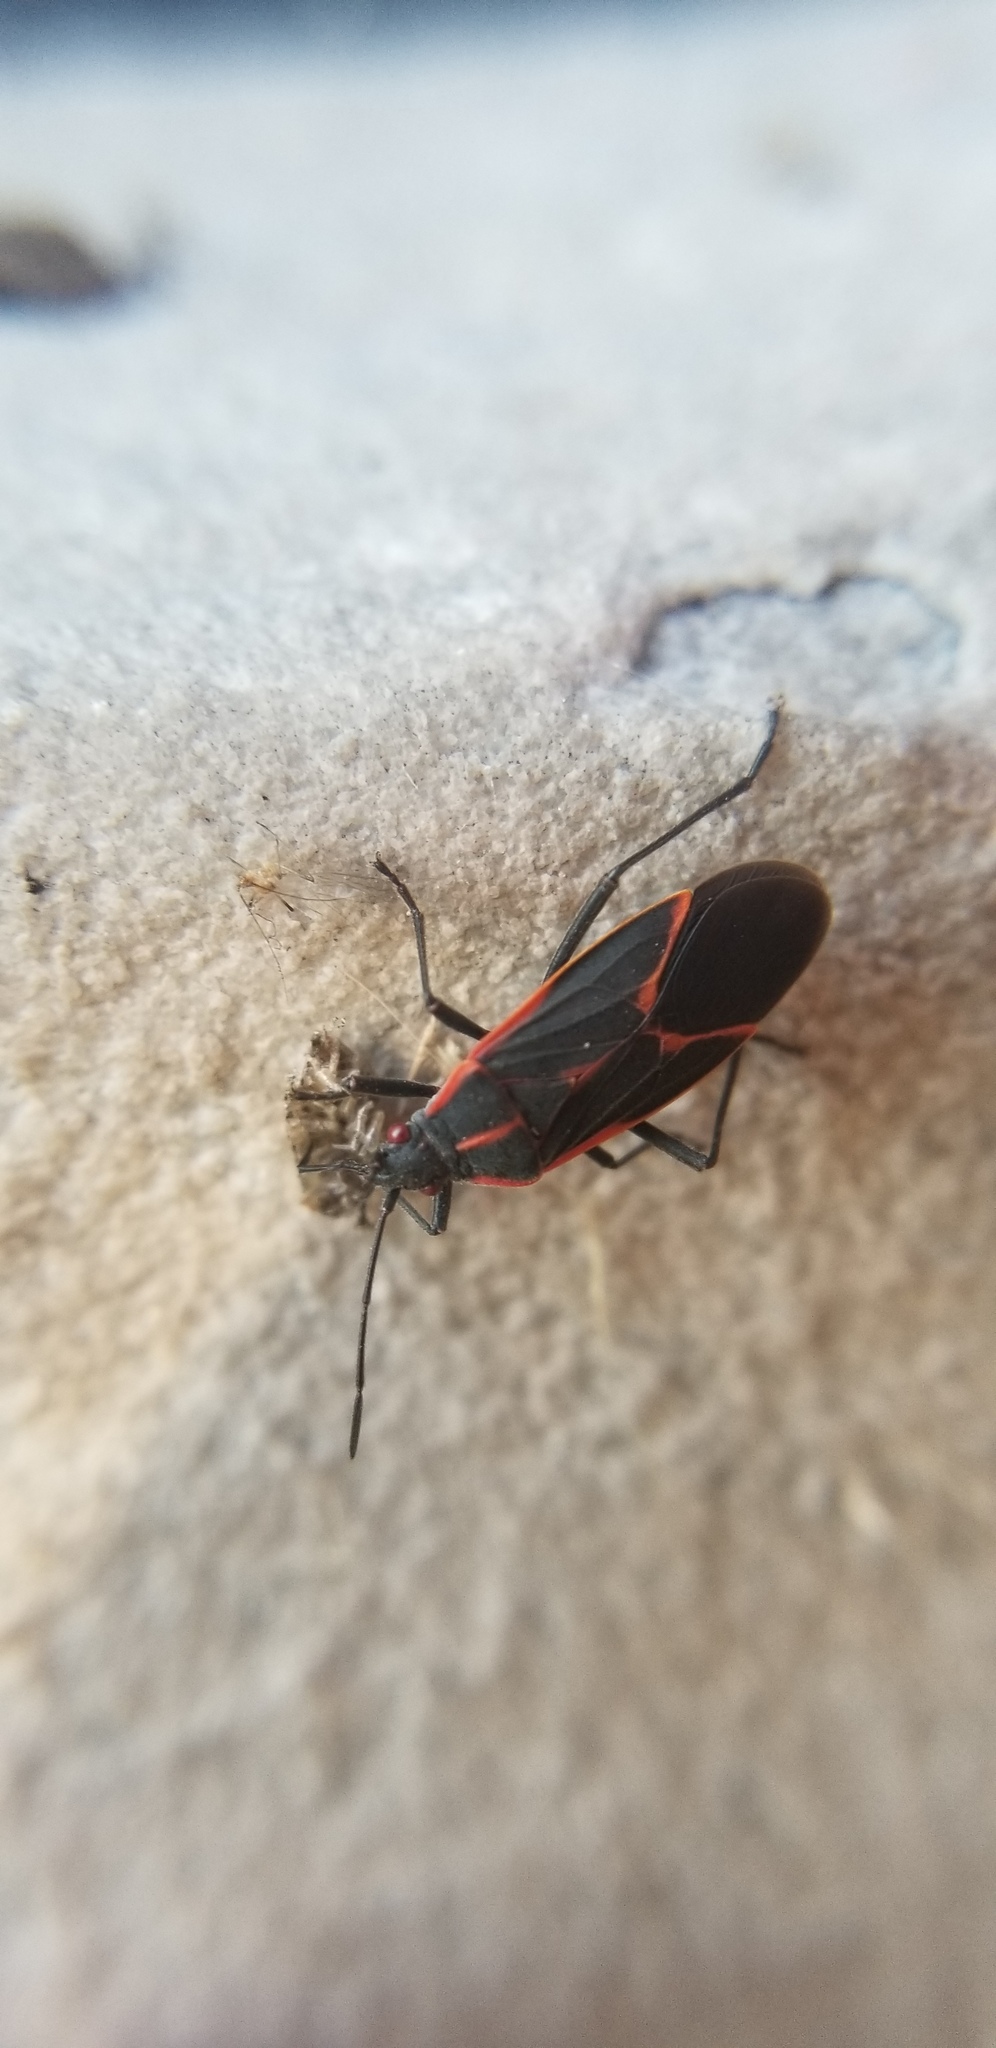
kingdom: Animalia
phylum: Arthropoda
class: Insecta
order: Hemiptera
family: Rhopalidae
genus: Boisea
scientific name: Boisea trivittata
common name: Boxelder bug
